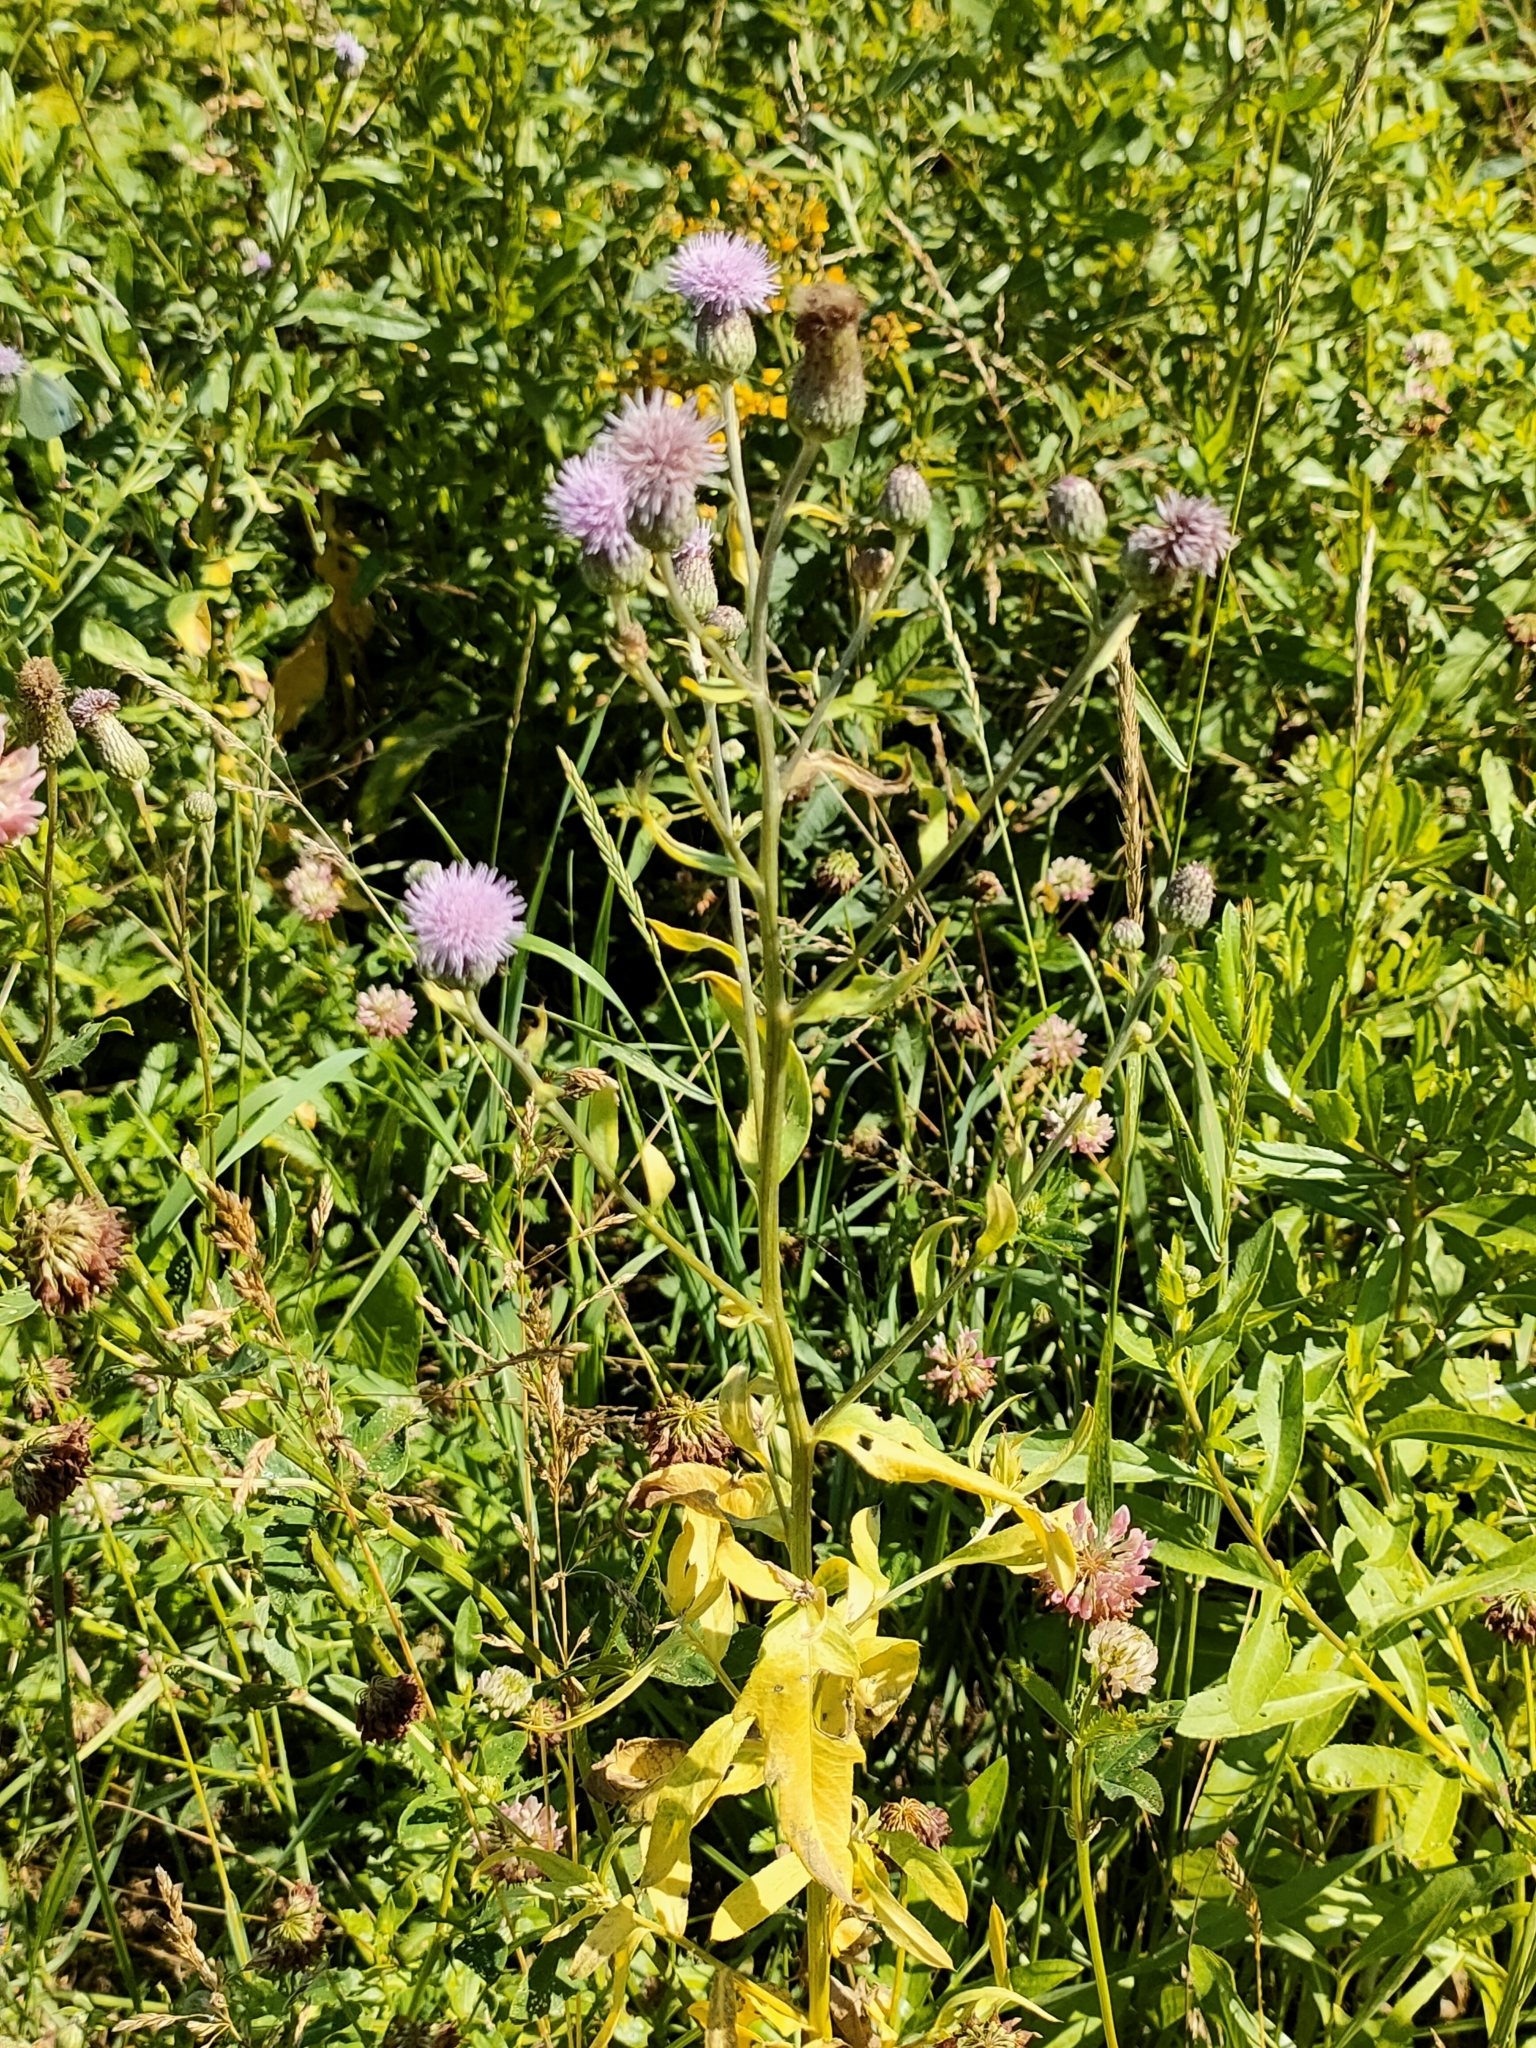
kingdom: Plantae
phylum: Tracheophyta
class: Magnoliopsida
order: Asterales
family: Asteraceae
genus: Cirsium
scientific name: Cirsium arvense
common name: Creeping thistle
